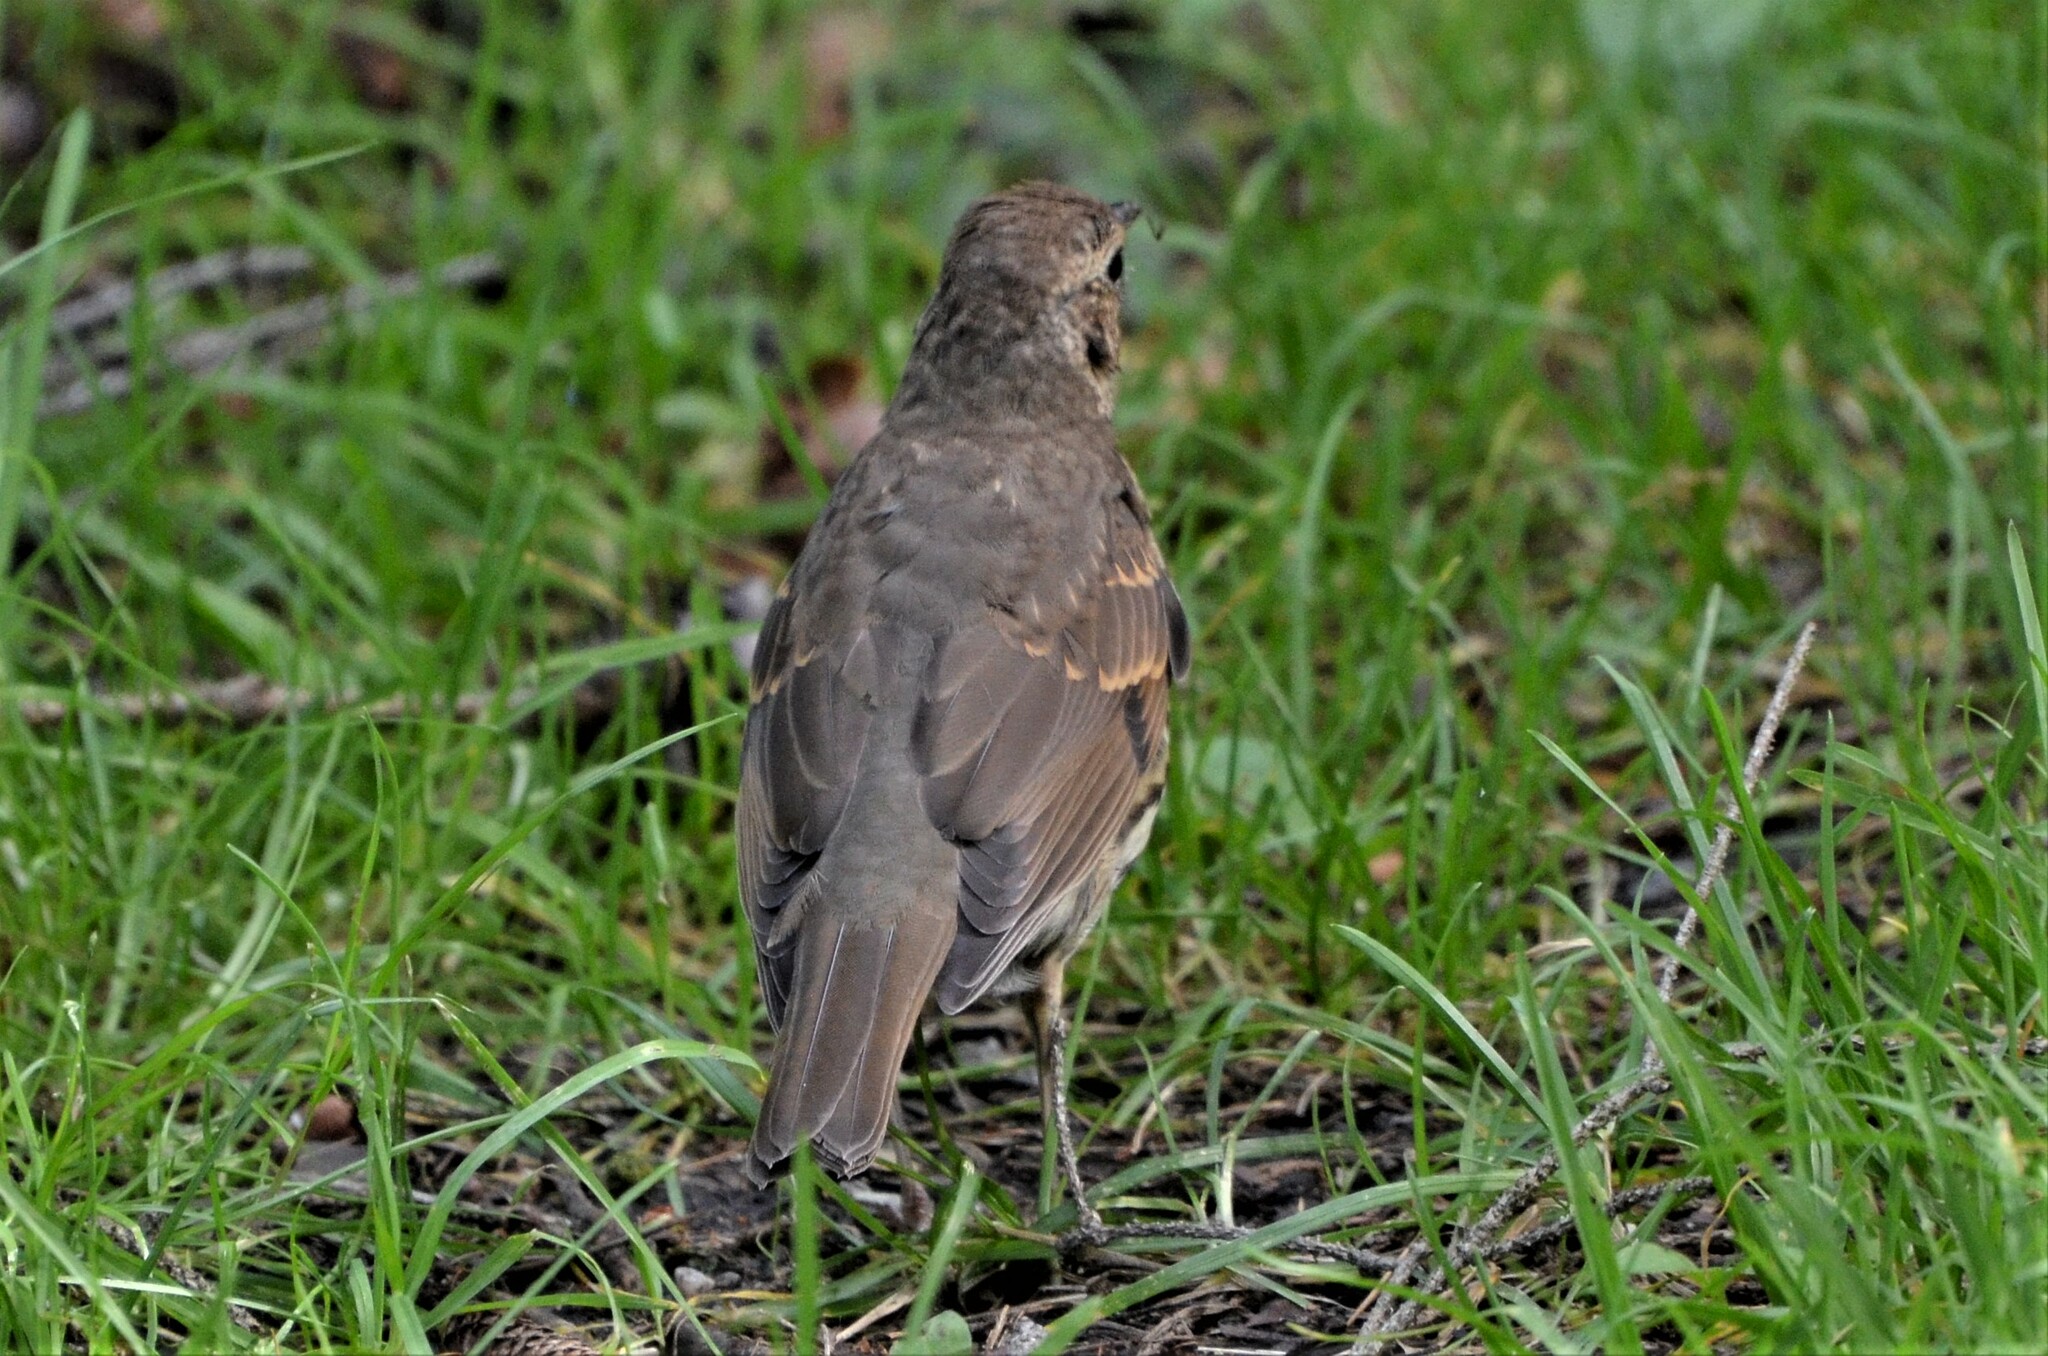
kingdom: Animalia
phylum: Chordata
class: Aves
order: Passeriformes
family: Turdidae
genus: Turdus
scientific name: Turdus philomelos
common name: Song thrush
